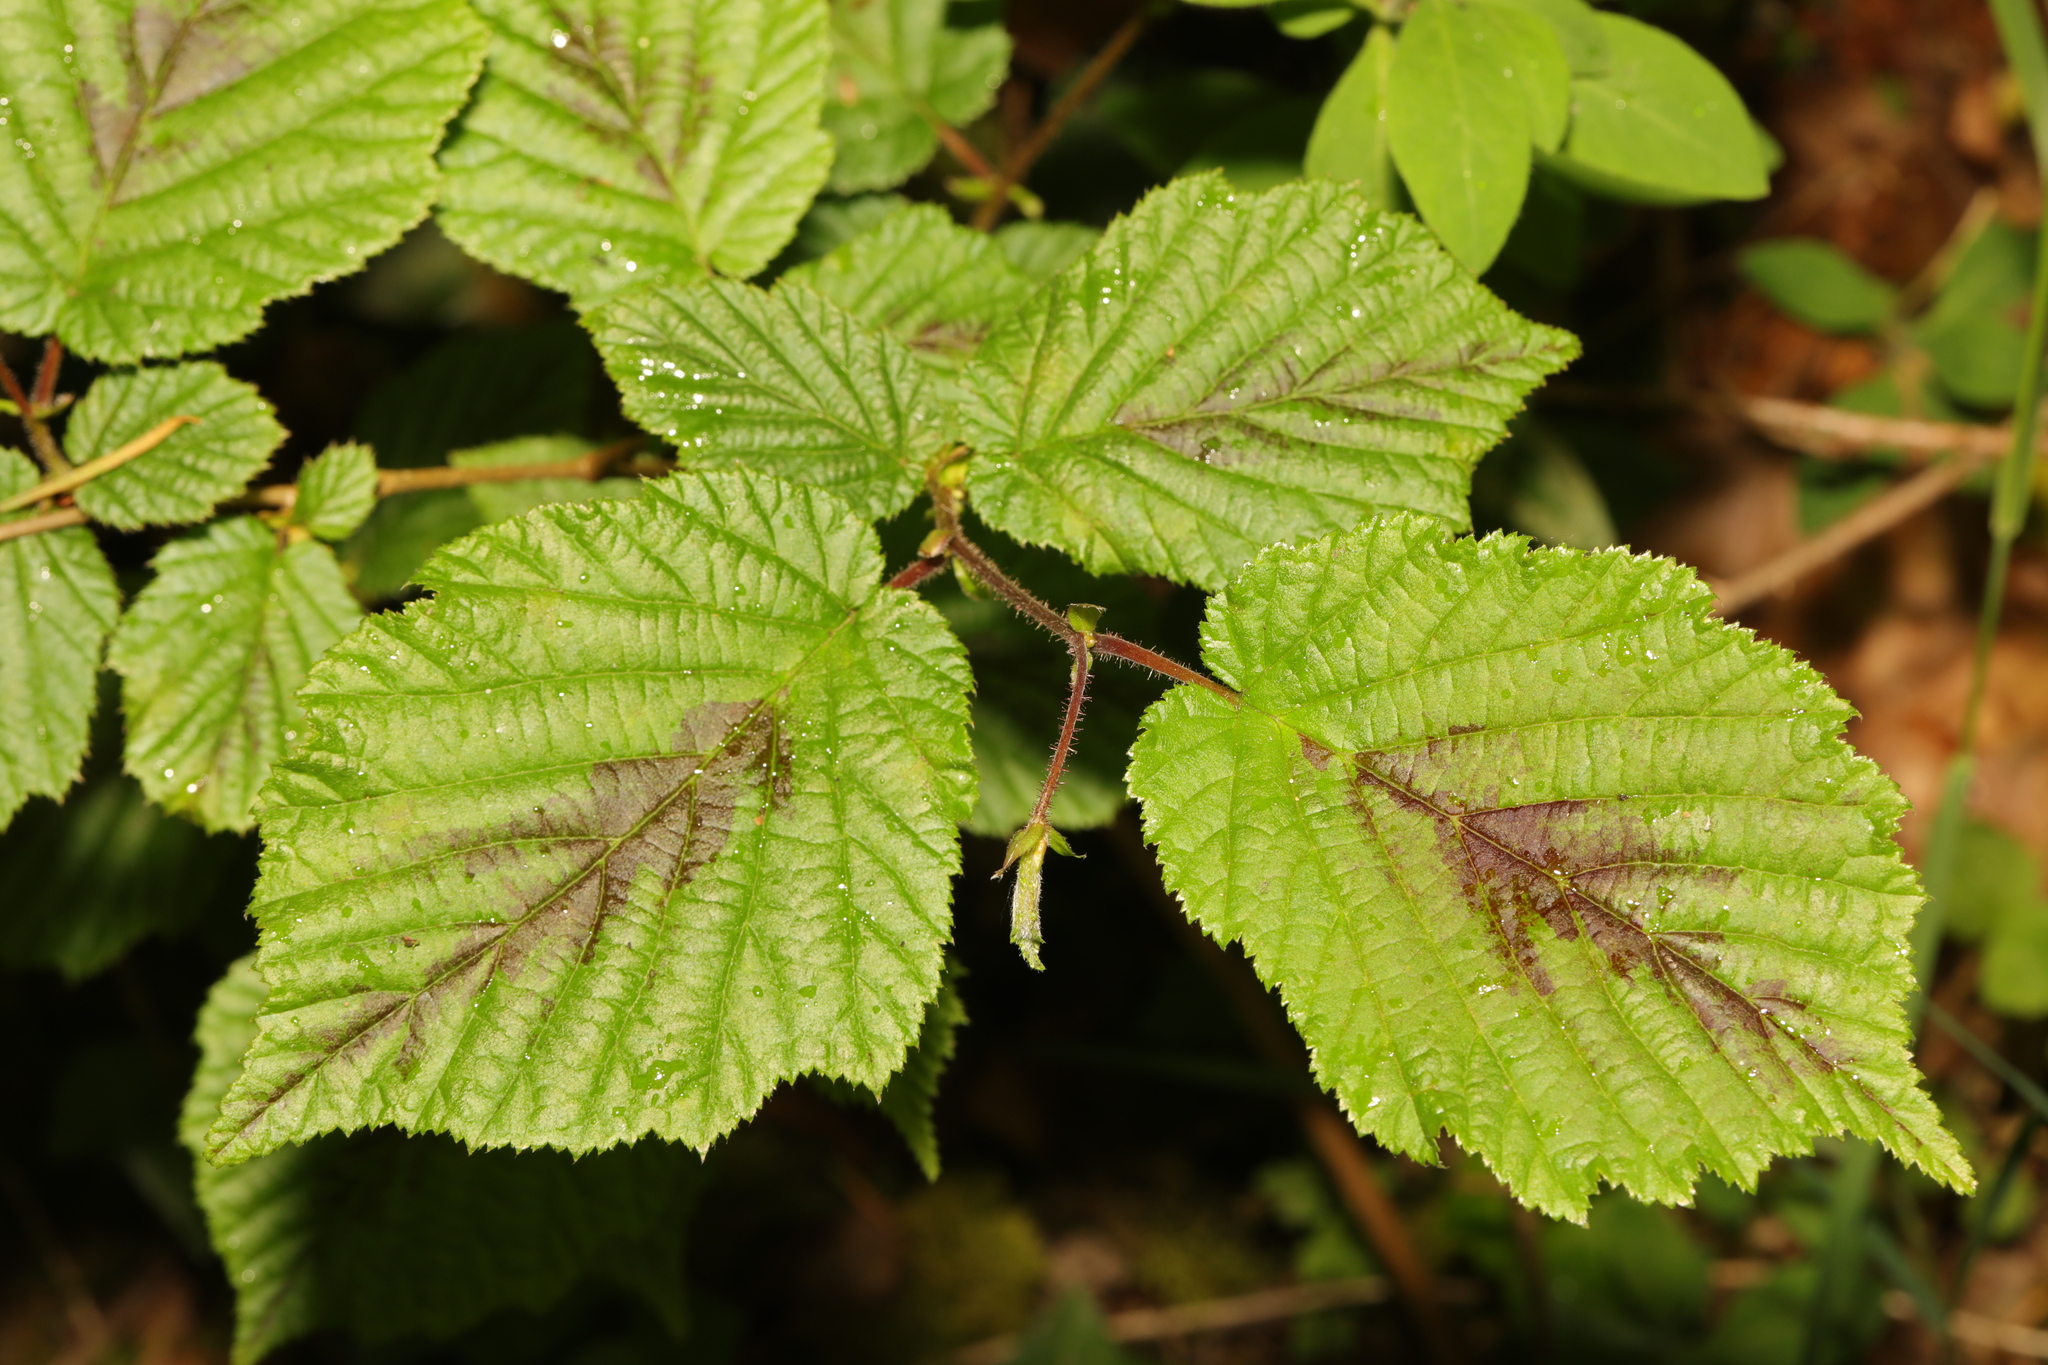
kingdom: Plantae
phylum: Tracheophyta
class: Magnoliopsida
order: Fagales
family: Betulaceae
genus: Corylus
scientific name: Corylus avellana
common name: European hazel
